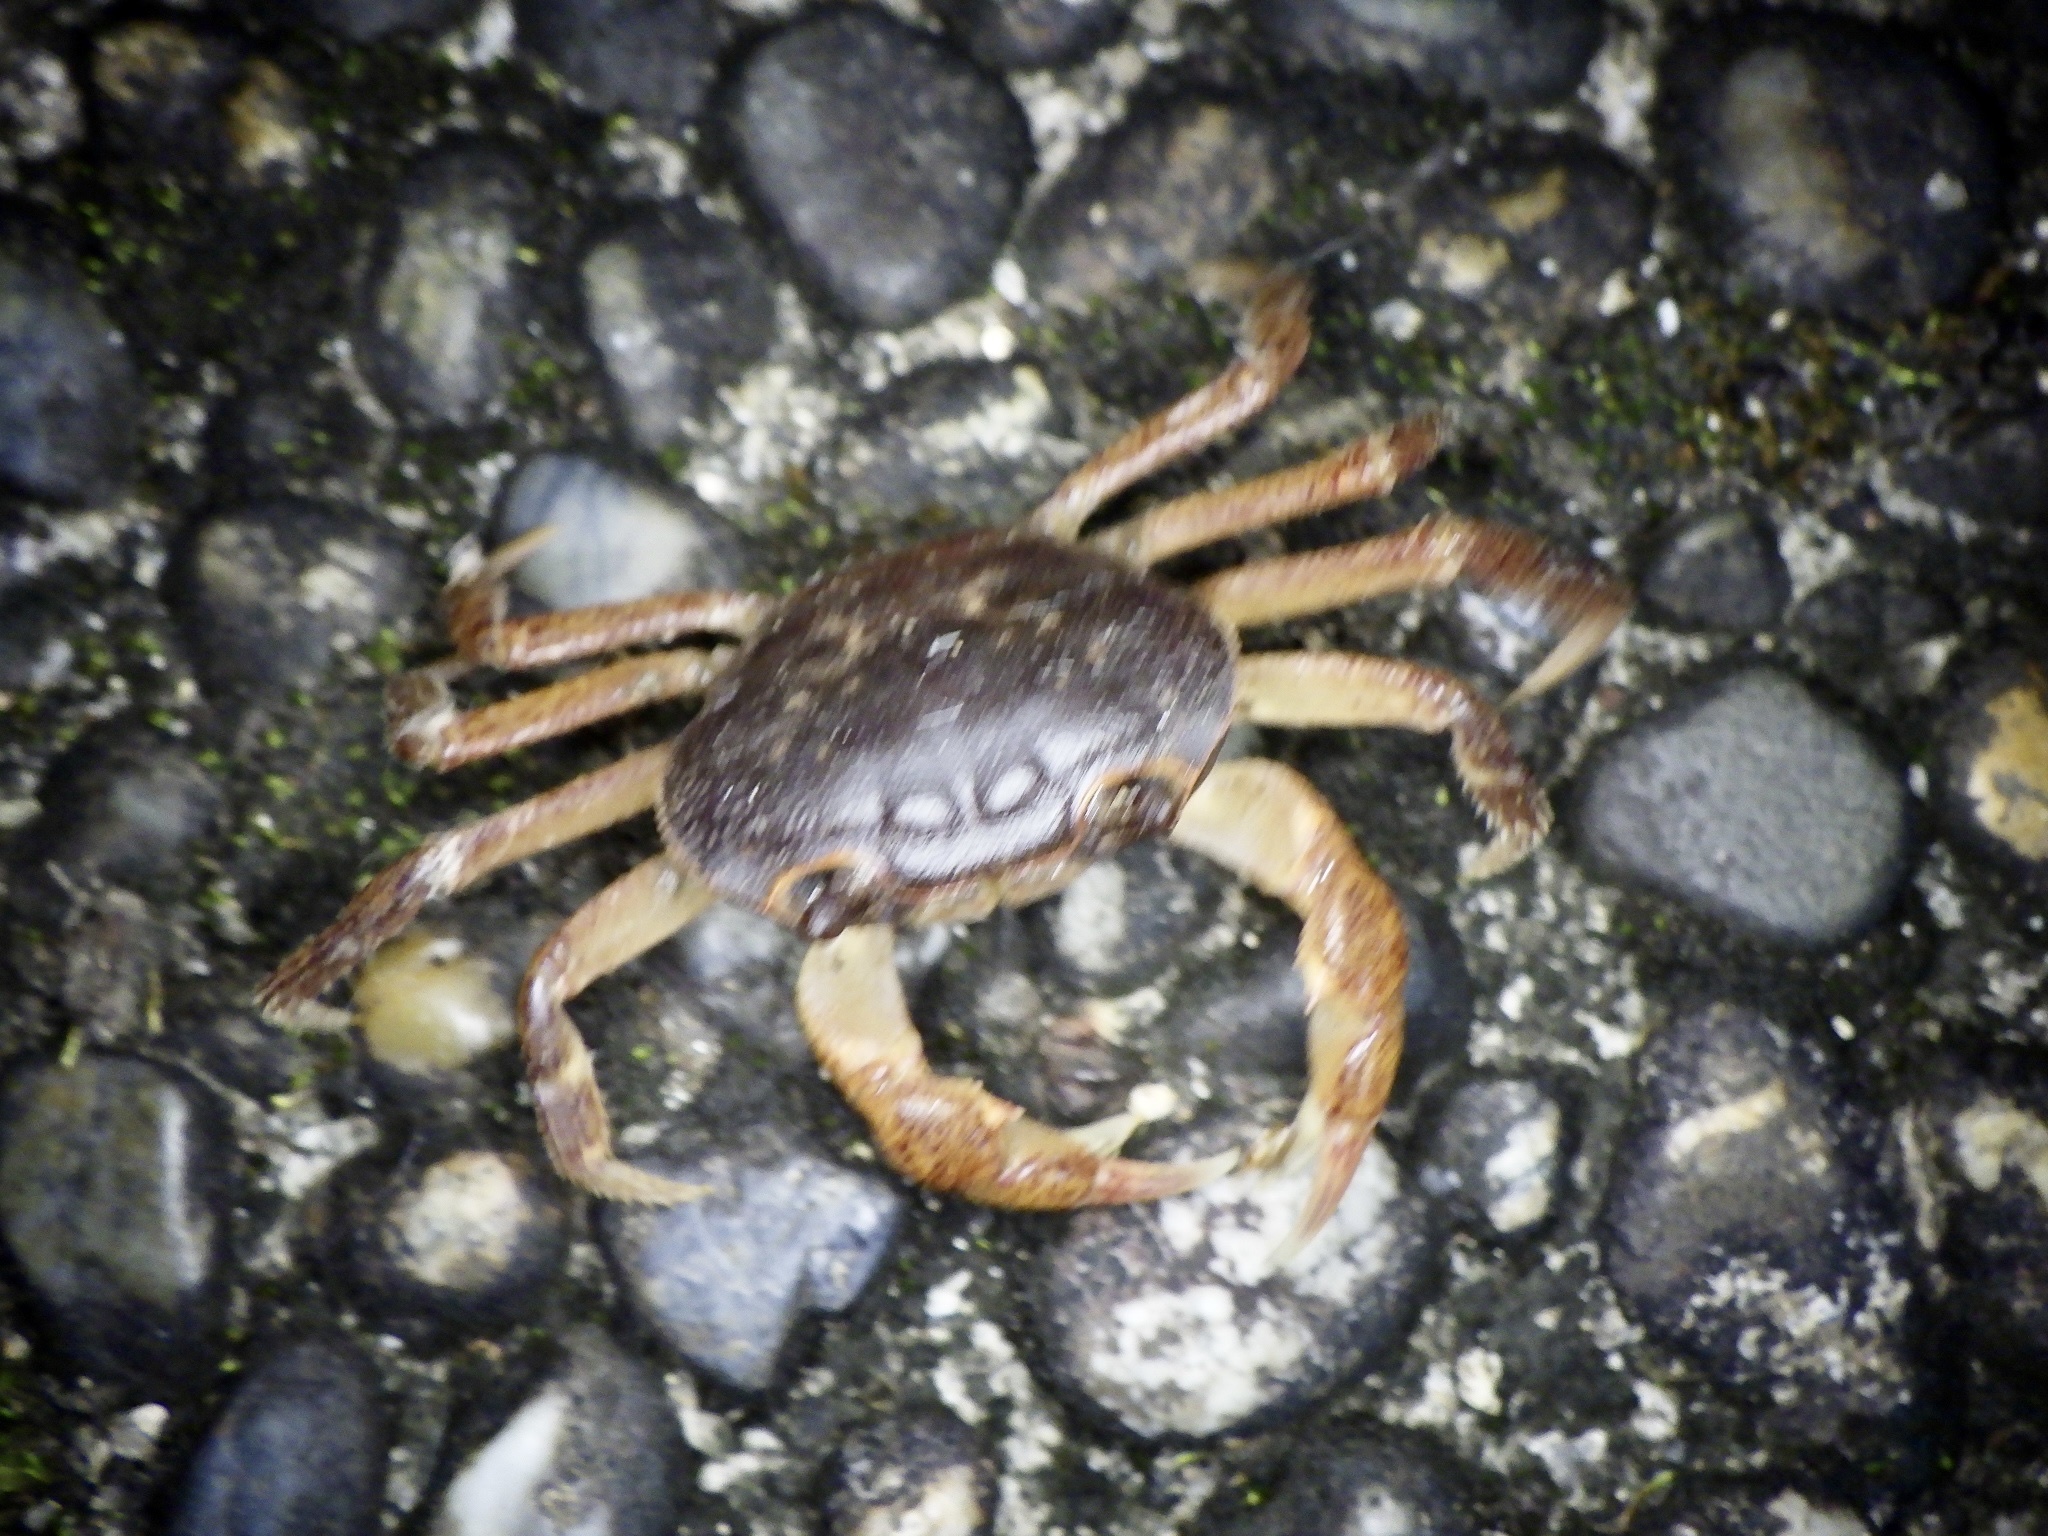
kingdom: Animalia
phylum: Arthropoda
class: Malacostraca
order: Decapoda
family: Potamidae
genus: Geothelphusa
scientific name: Geothelphusa dehaani
